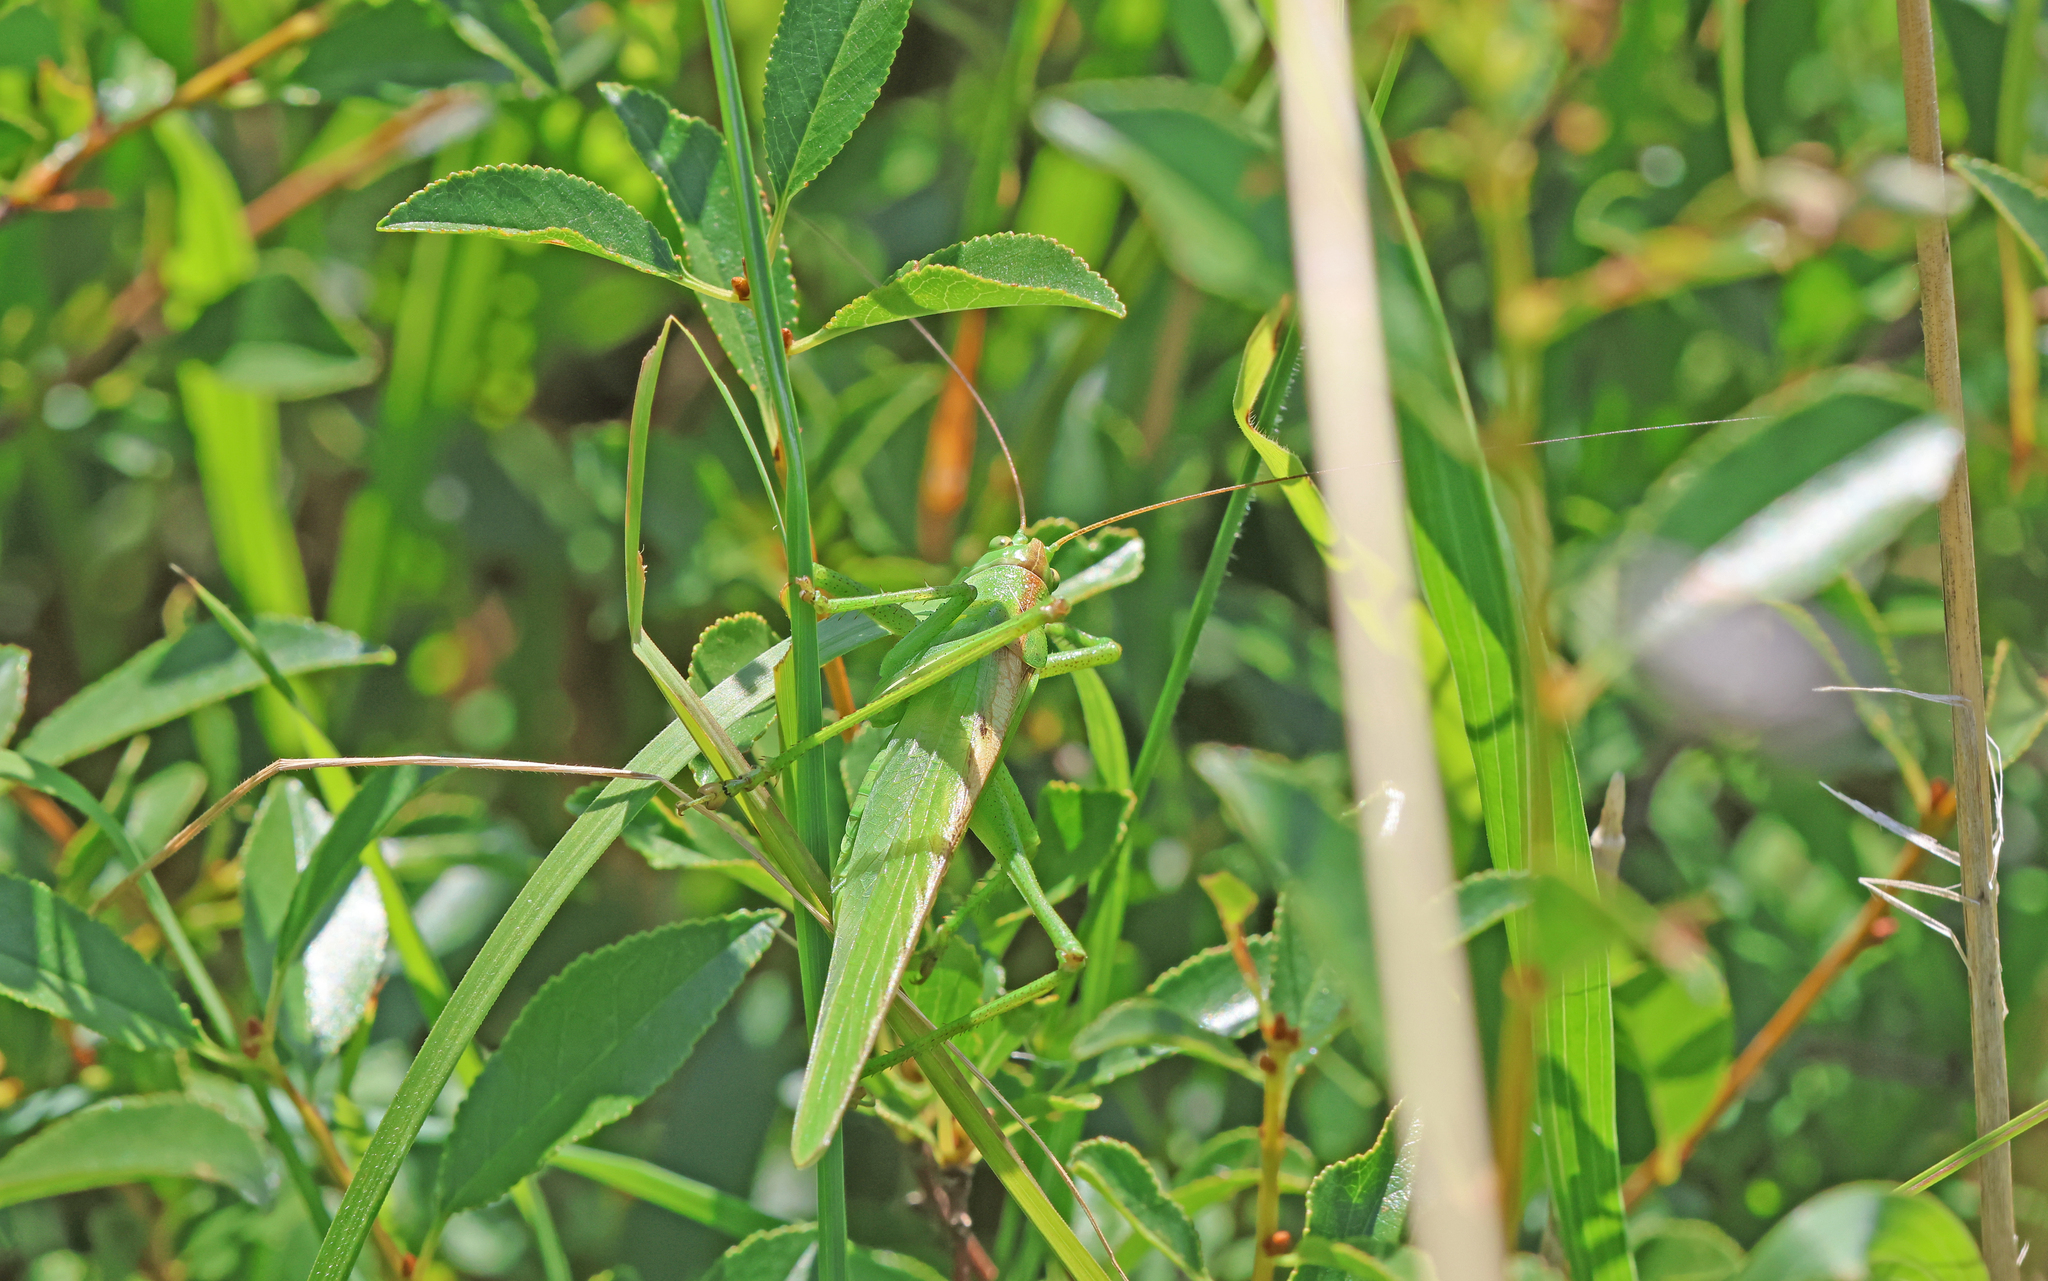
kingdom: Animalia
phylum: Arthropoda
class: Insecta
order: Orthoptera
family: Tettigoniidae
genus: Tettigonia
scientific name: Tettigonia viridissima
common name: Great green bush-cricket
